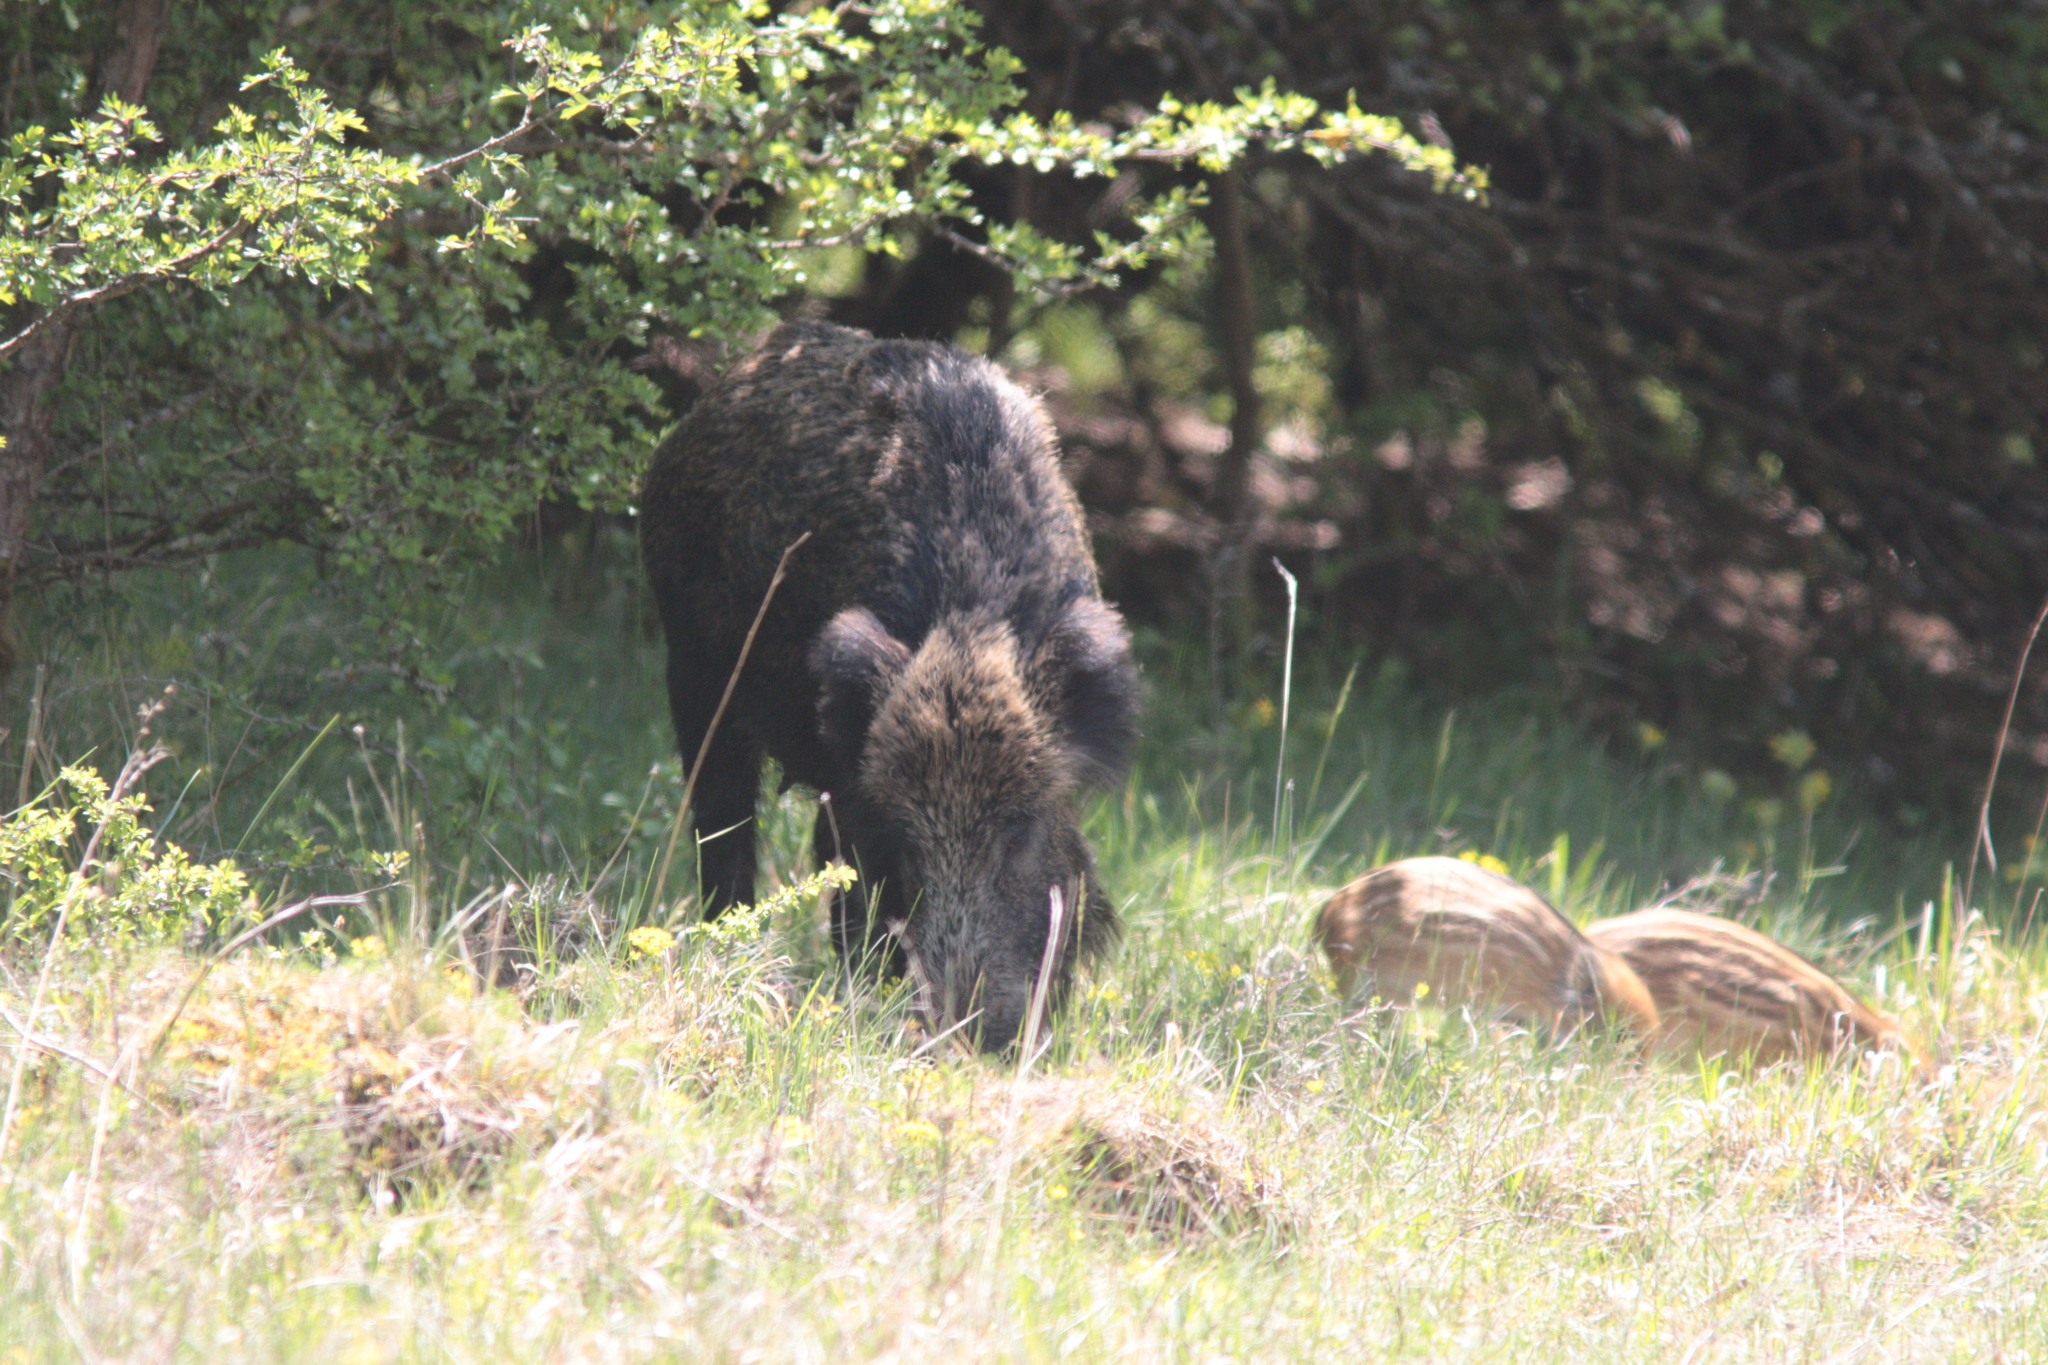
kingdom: Animalia
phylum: Chordata
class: Mammalia
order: Artiodactyla
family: Suidae
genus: Sus
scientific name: Sus scrofa
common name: Wild boar
